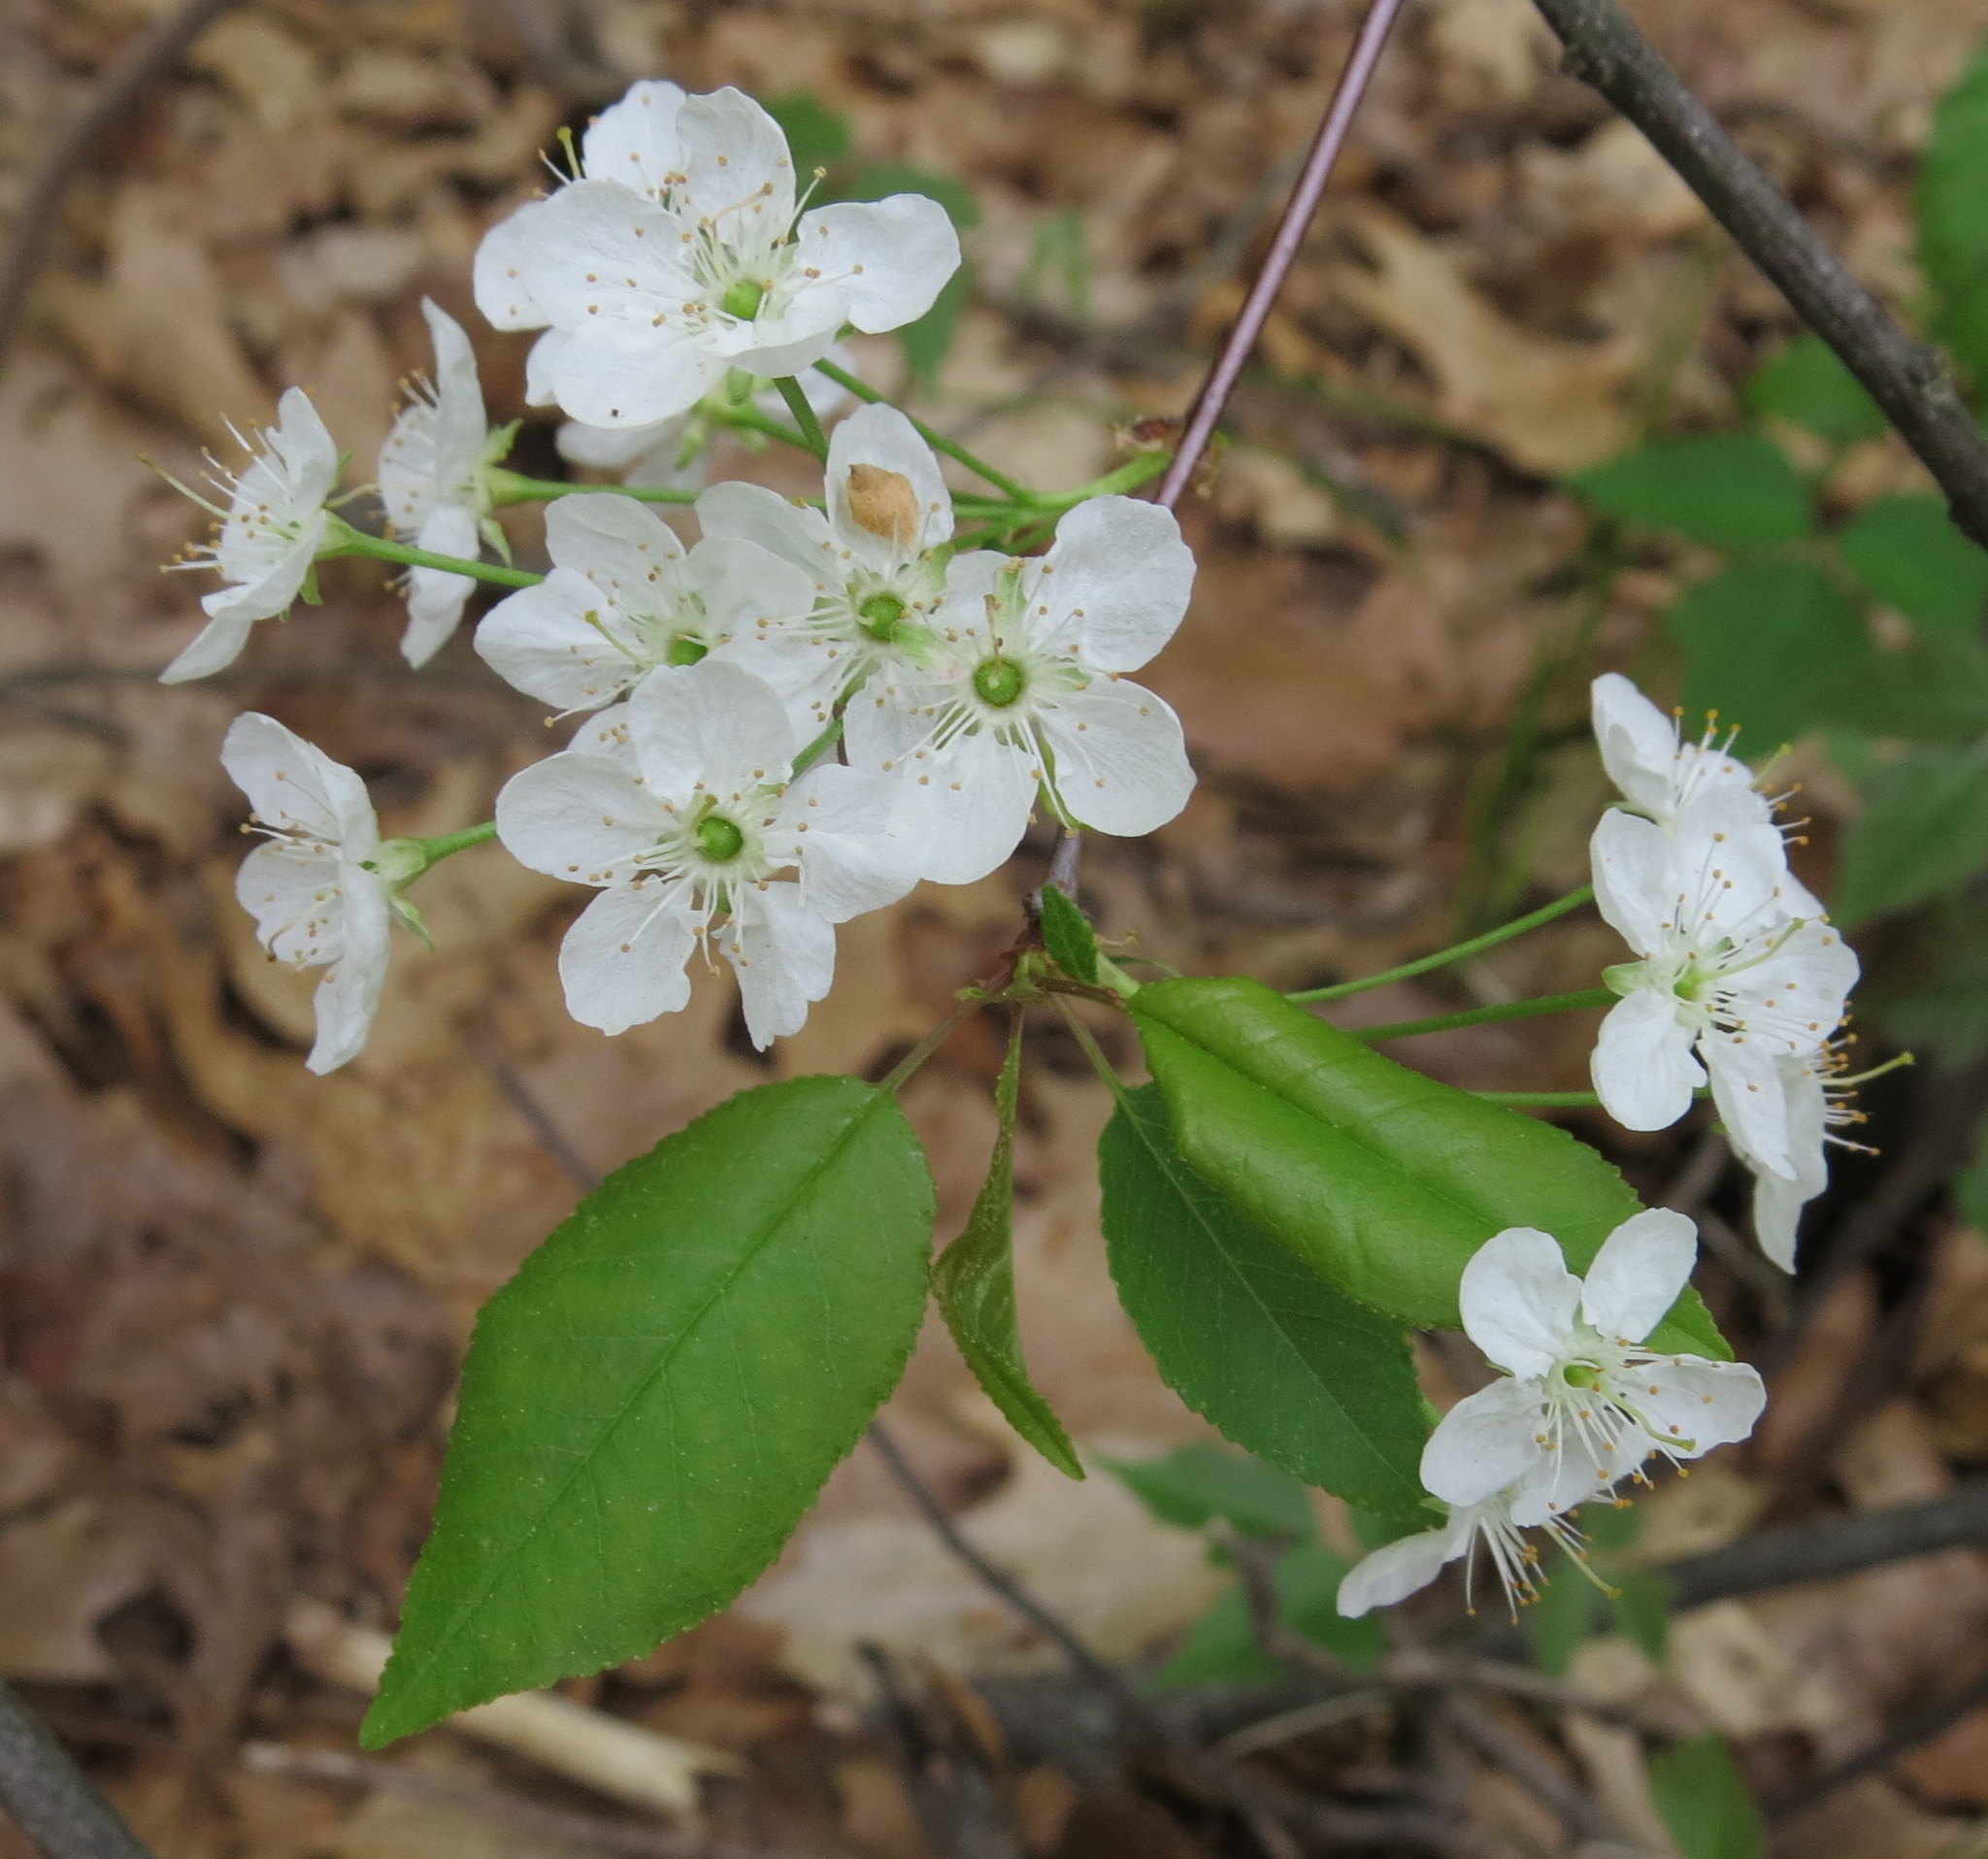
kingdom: Plantae
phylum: Tracheophyta
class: Magnoliopsida
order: Rosales
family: Rosaceae
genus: Prunus
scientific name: Prunus pensylvanica
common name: Pin cherry
